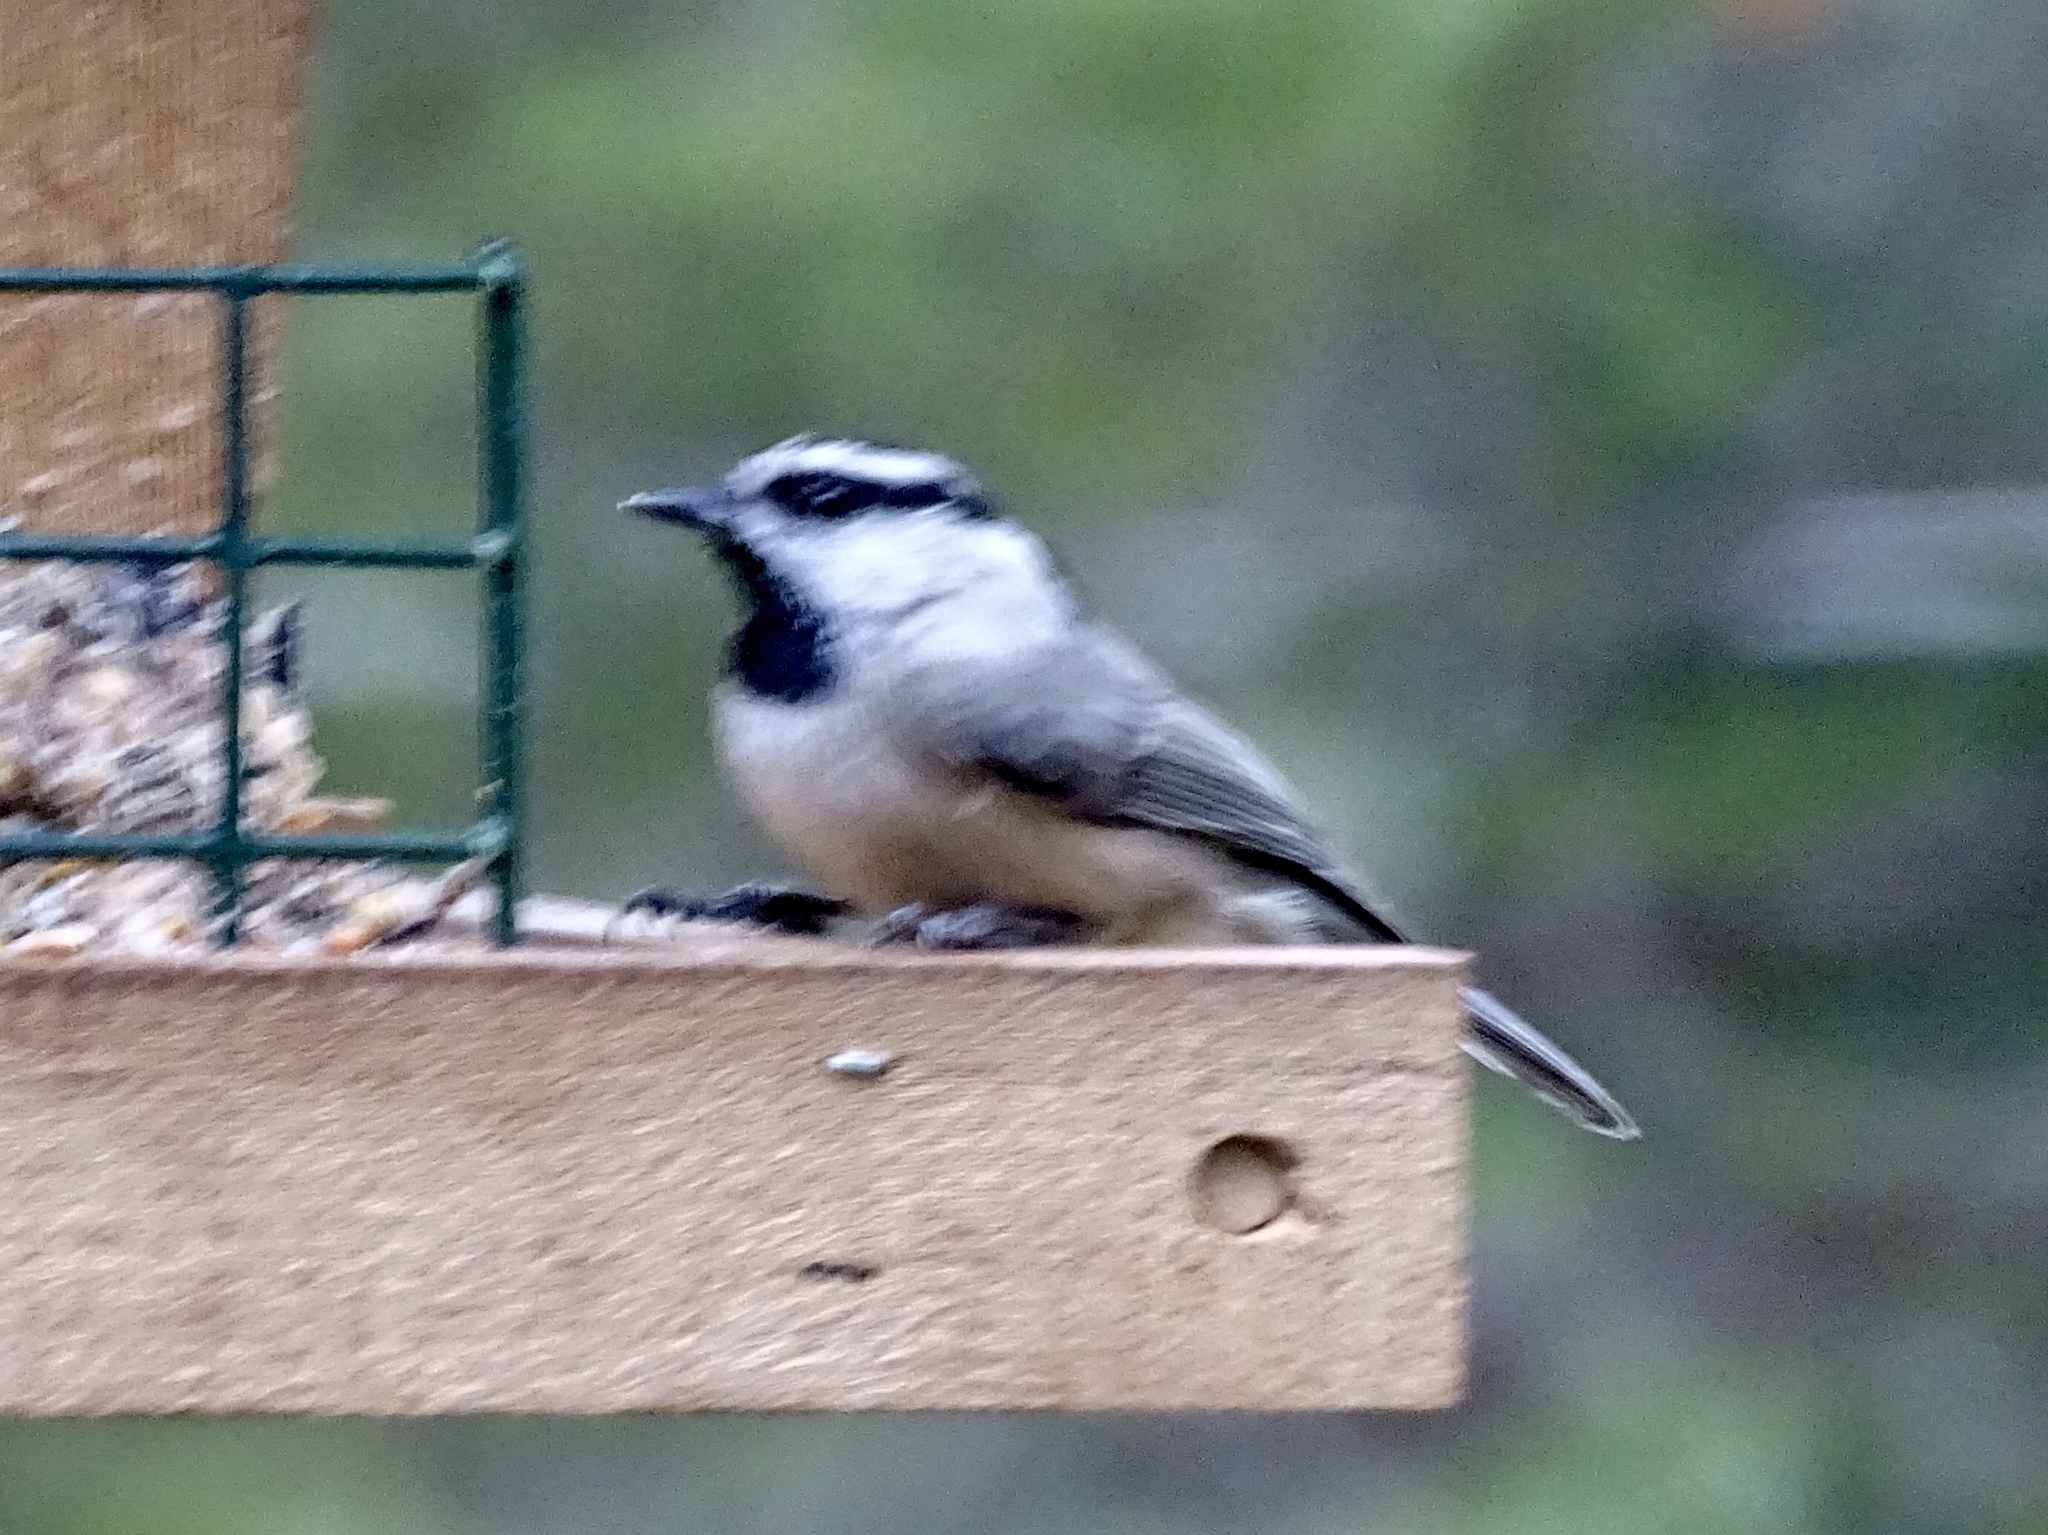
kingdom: Animalia
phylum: Chordata
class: Aves
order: Passeriformes
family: Paridae
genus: Poecile
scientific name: Poecile gambeli
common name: Mountain chickadee
